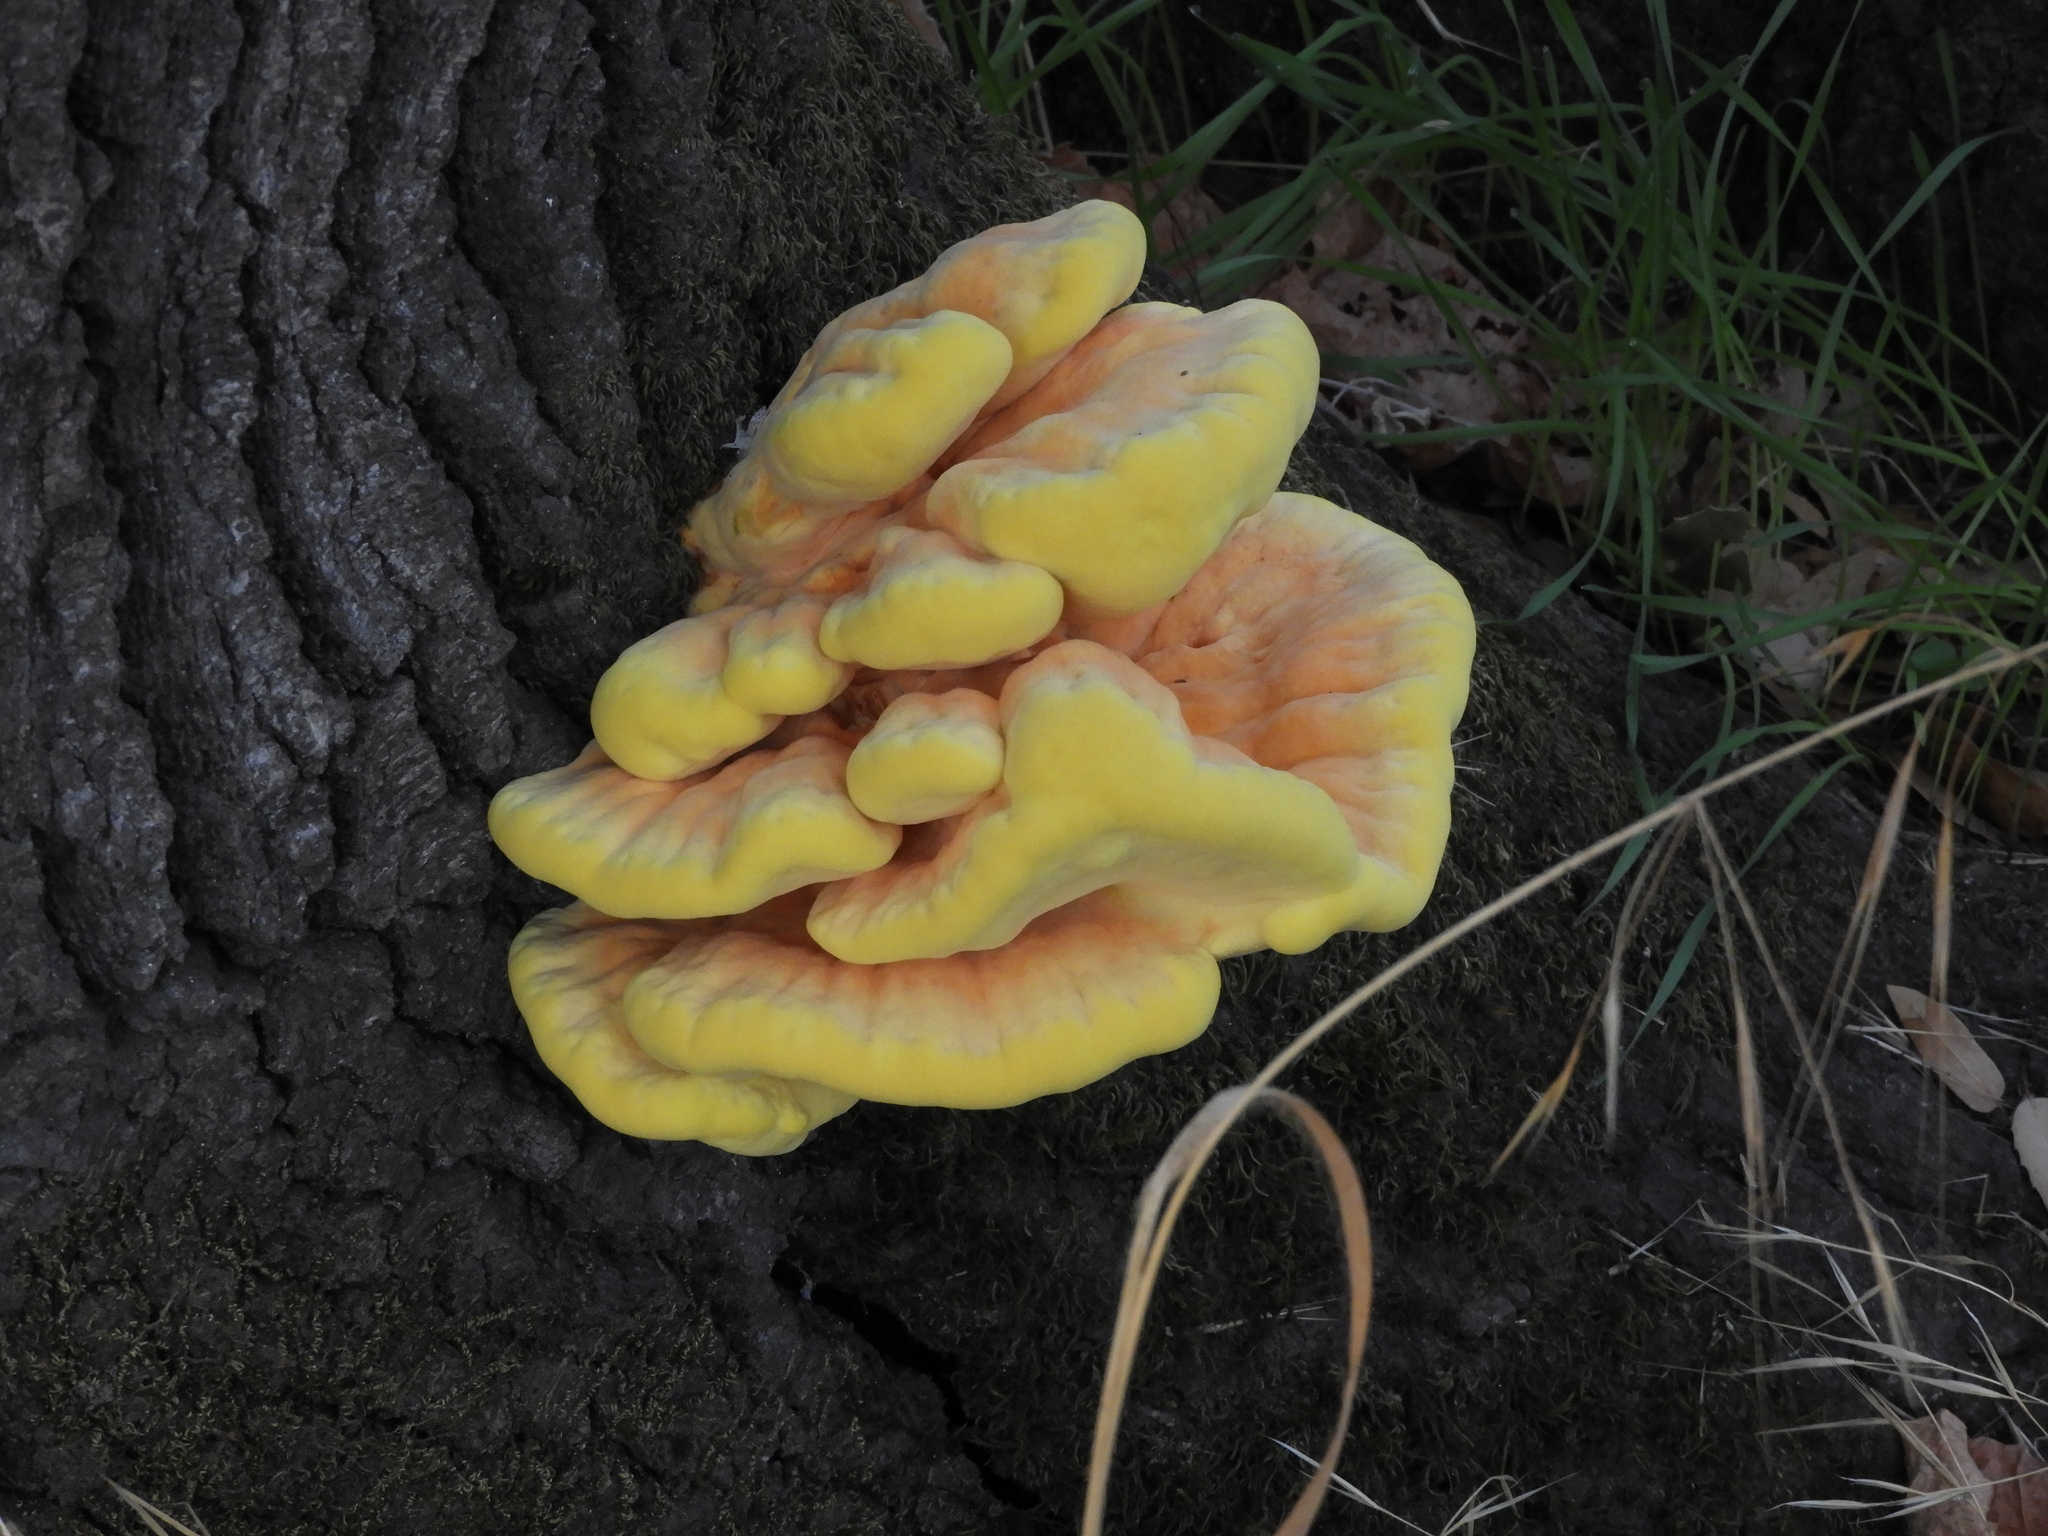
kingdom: Fungi
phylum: Basidiomycota
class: Agaricomycetes
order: Polyporales
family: Laetiporaceae
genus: Laetiporus
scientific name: Laetiporus gilbertsonii
